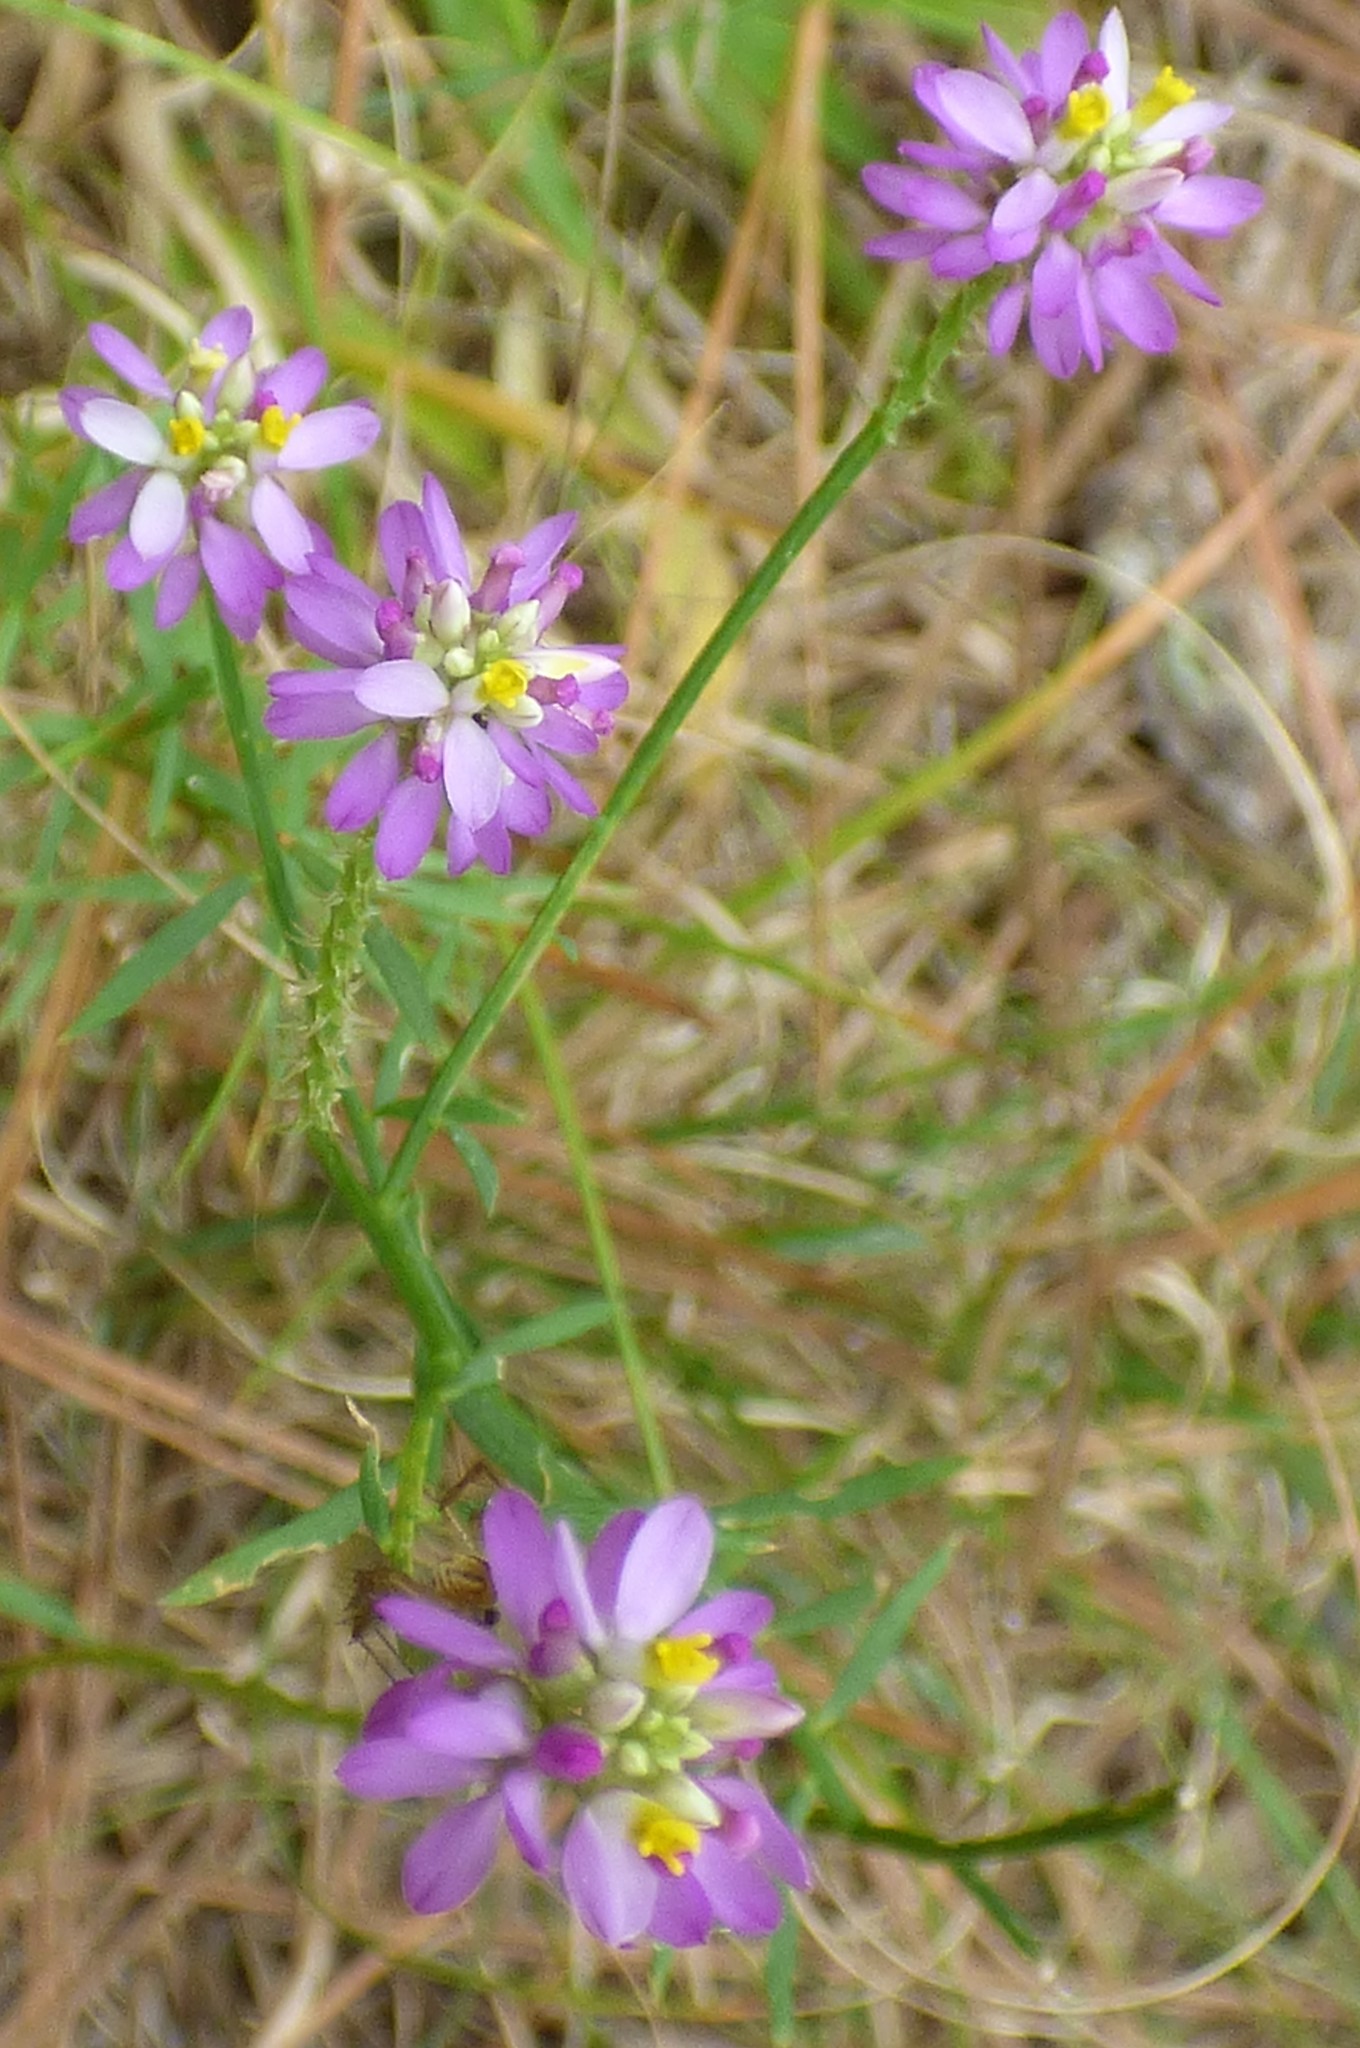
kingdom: Plantae
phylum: Tracheophyta
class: Magnoliopsida
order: Fabales
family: Polygalaceae
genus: Polygala
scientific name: Polygala curtissii
